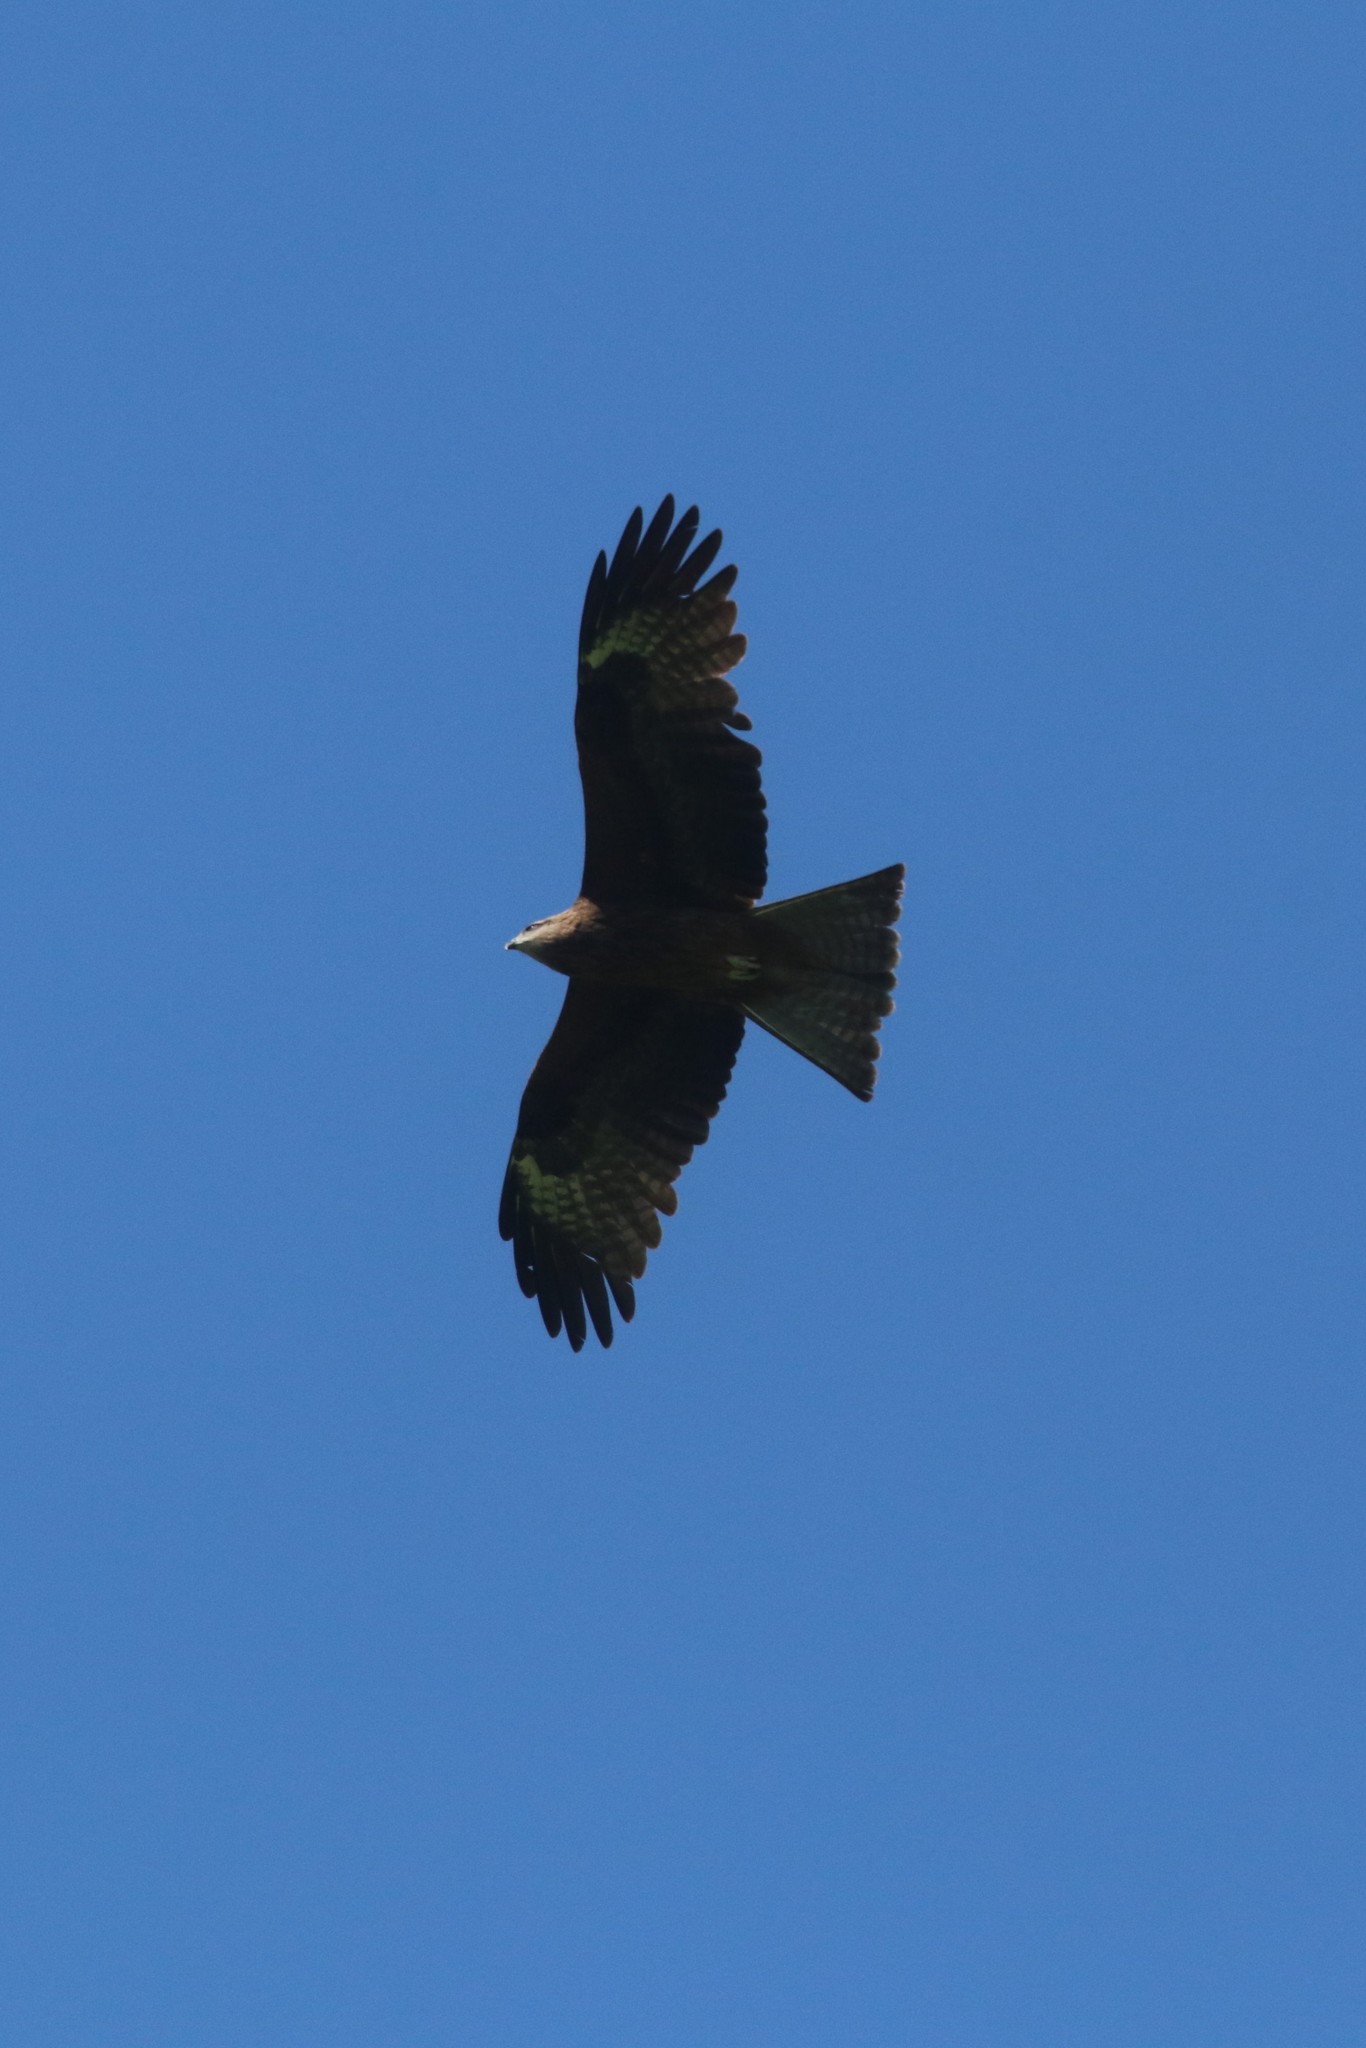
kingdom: Animalia
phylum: Chordata
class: Aves
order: Accipitriformes
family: Accipitridae
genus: Milvus
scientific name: Milvus migrans
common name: Black kite
